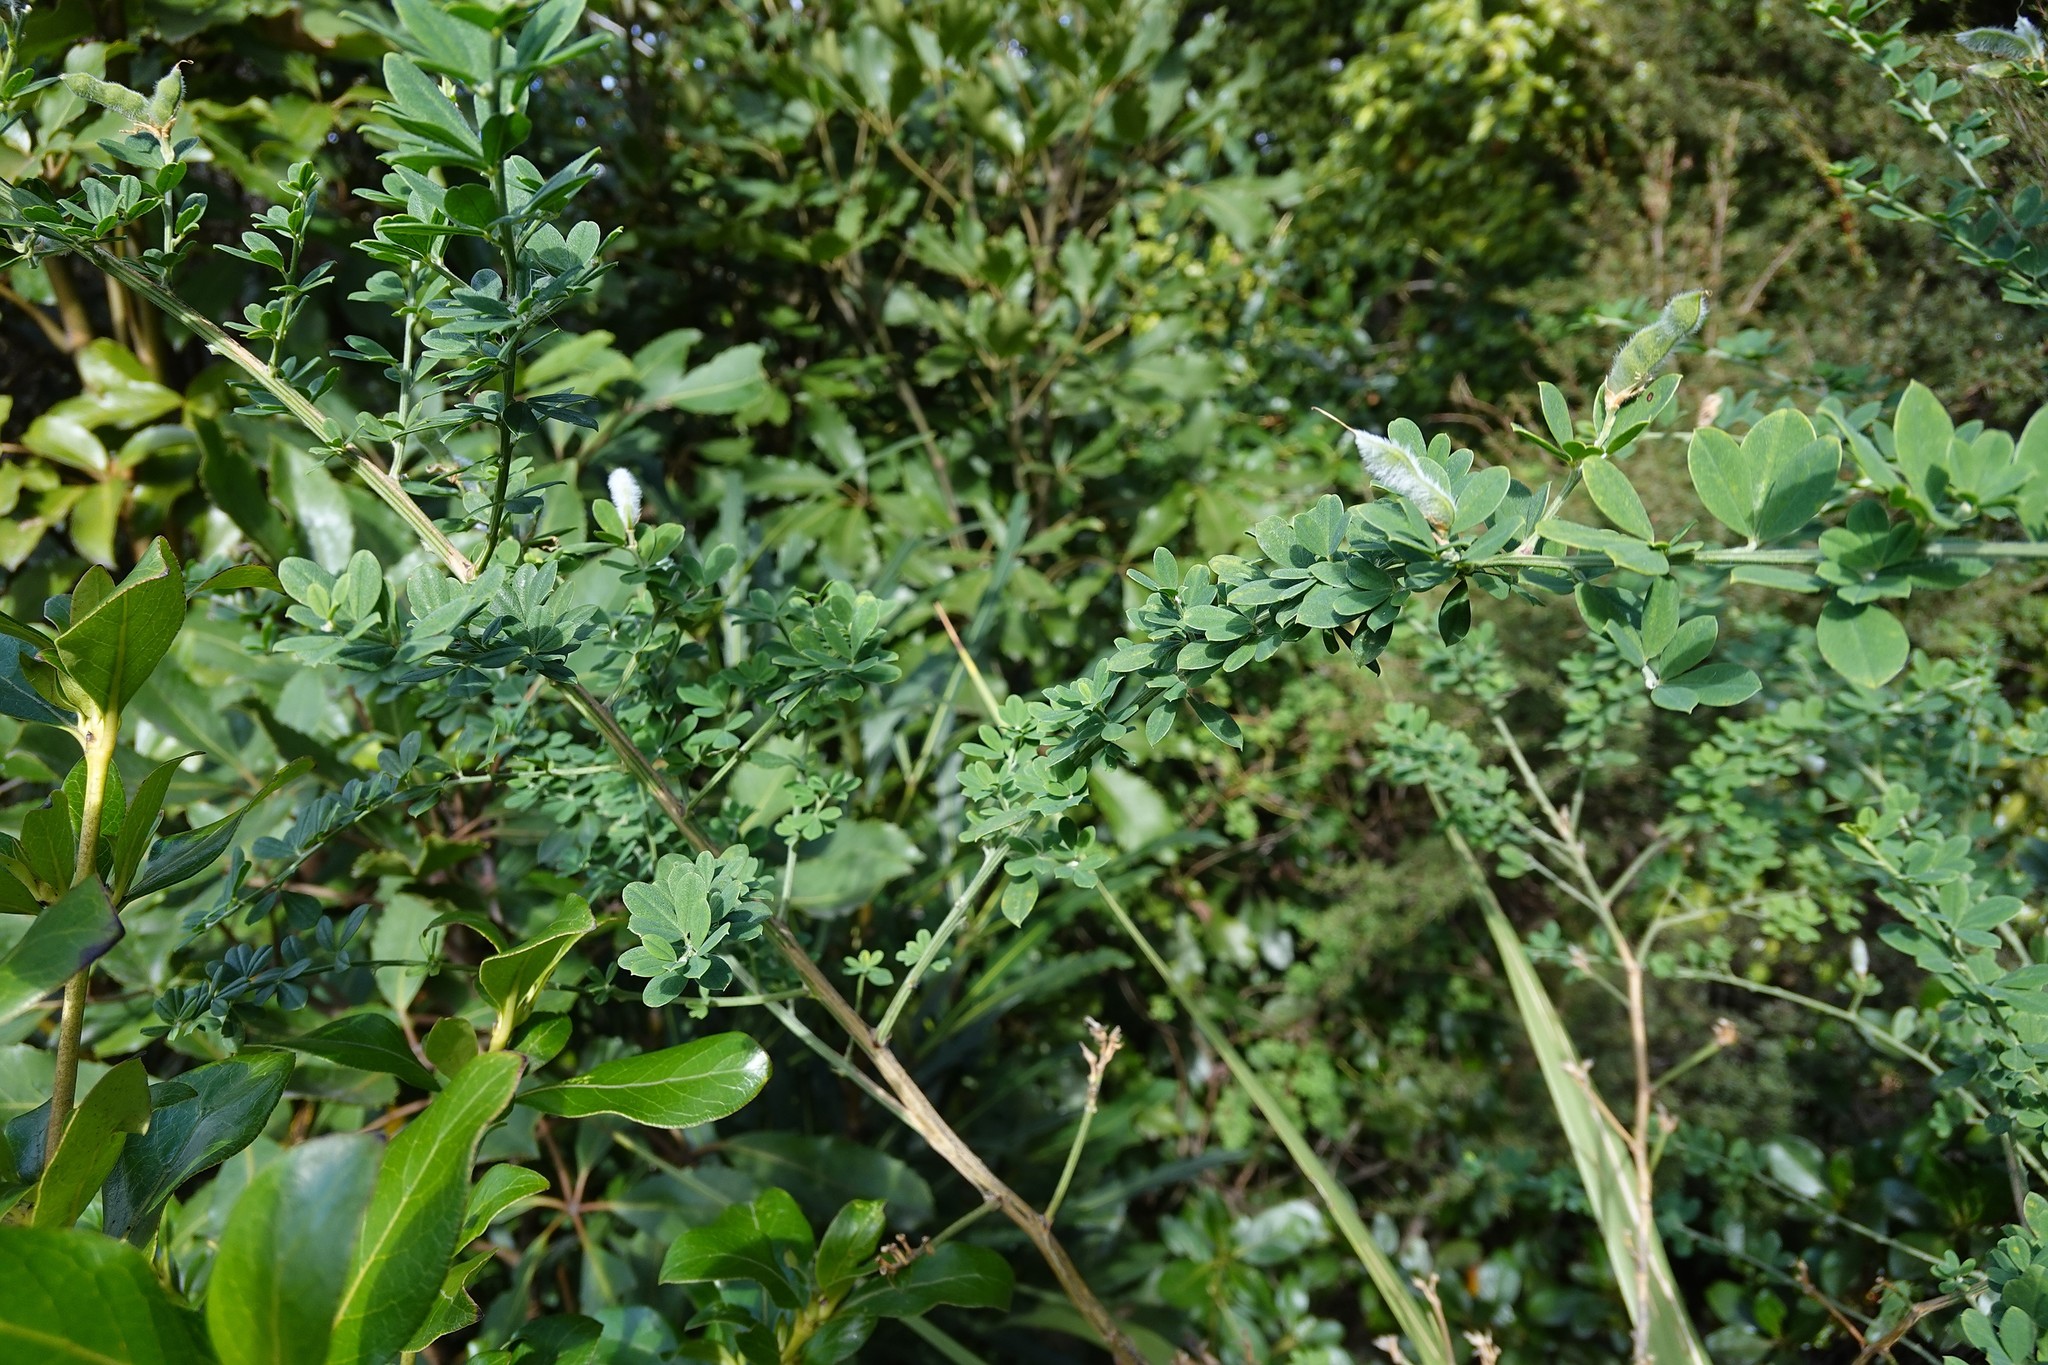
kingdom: Plantae
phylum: Tracheophyta
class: Magnoliopsida
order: Fabales
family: Fabaceae
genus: Genista
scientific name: Genista monspessulana
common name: Montpellier broom
